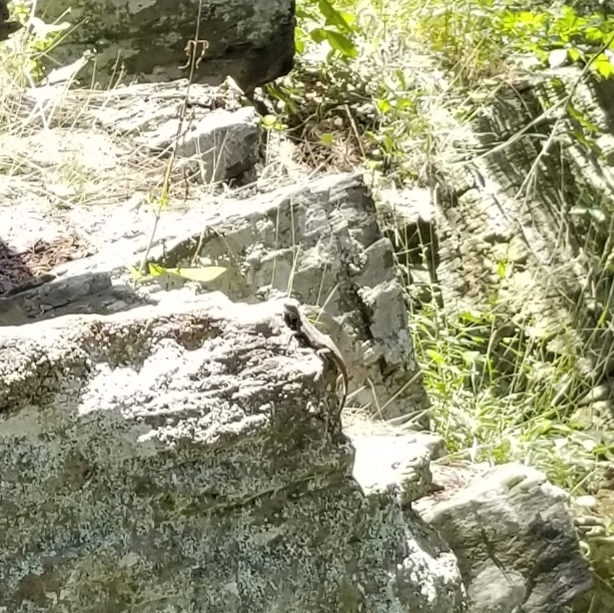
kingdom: Animalia
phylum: Chordata
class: Squamata
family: Phrynosomatidae
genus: Sceloporus
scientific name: Sceloporus undulatus
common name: Eastern fence lizard
